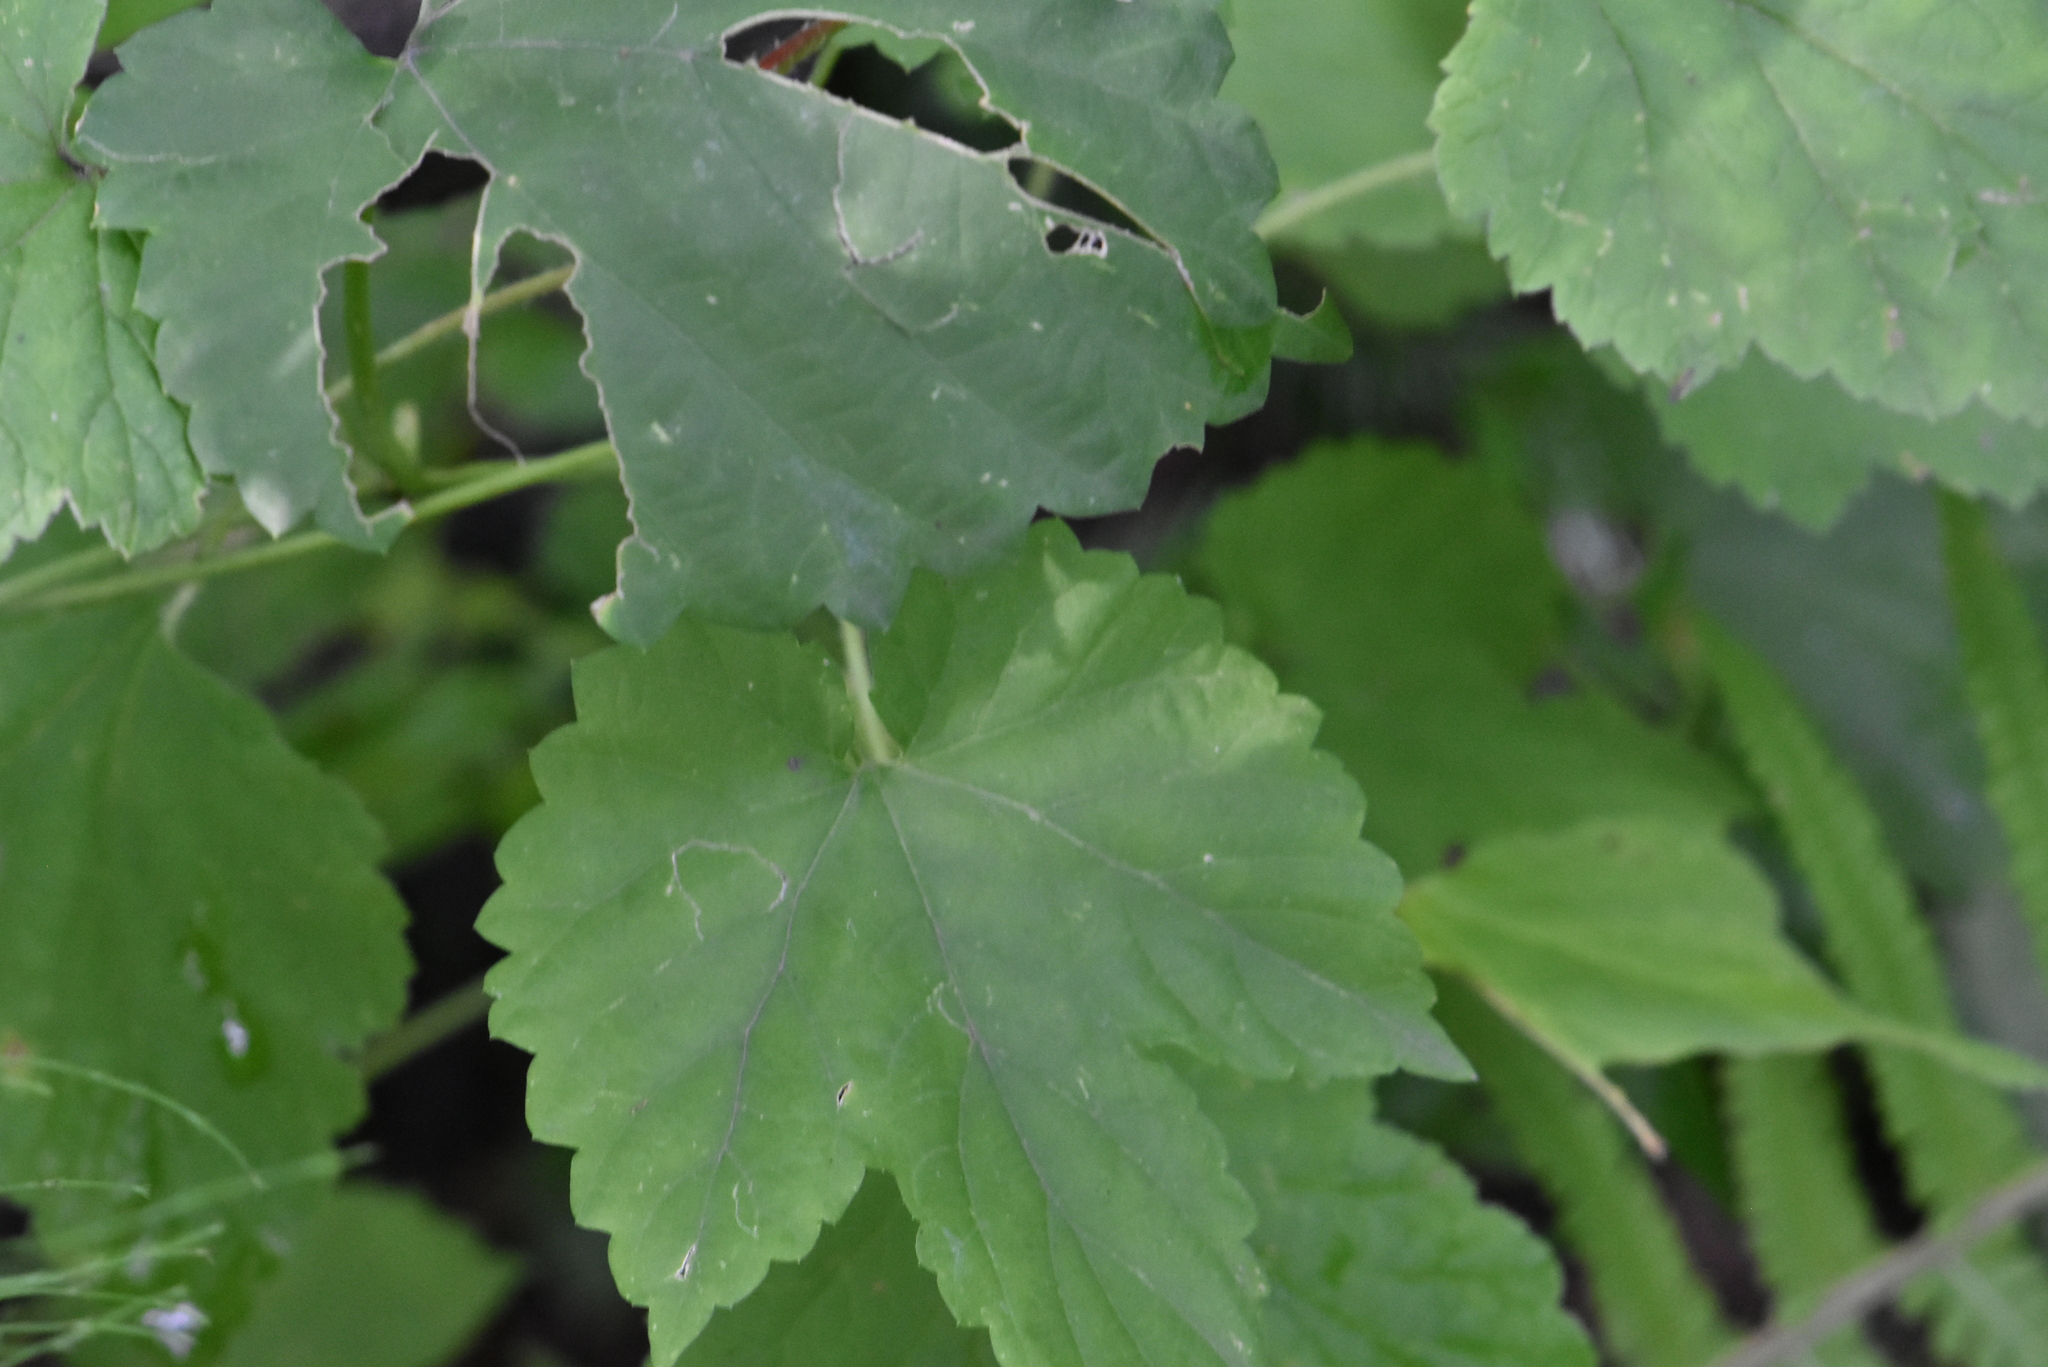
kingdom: Plantae
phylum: Tracheophyta
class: Magnoliopsida
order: Rosales
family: Cannabaceae
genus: Humulus
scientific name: Humulus lupulus
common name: Hop
